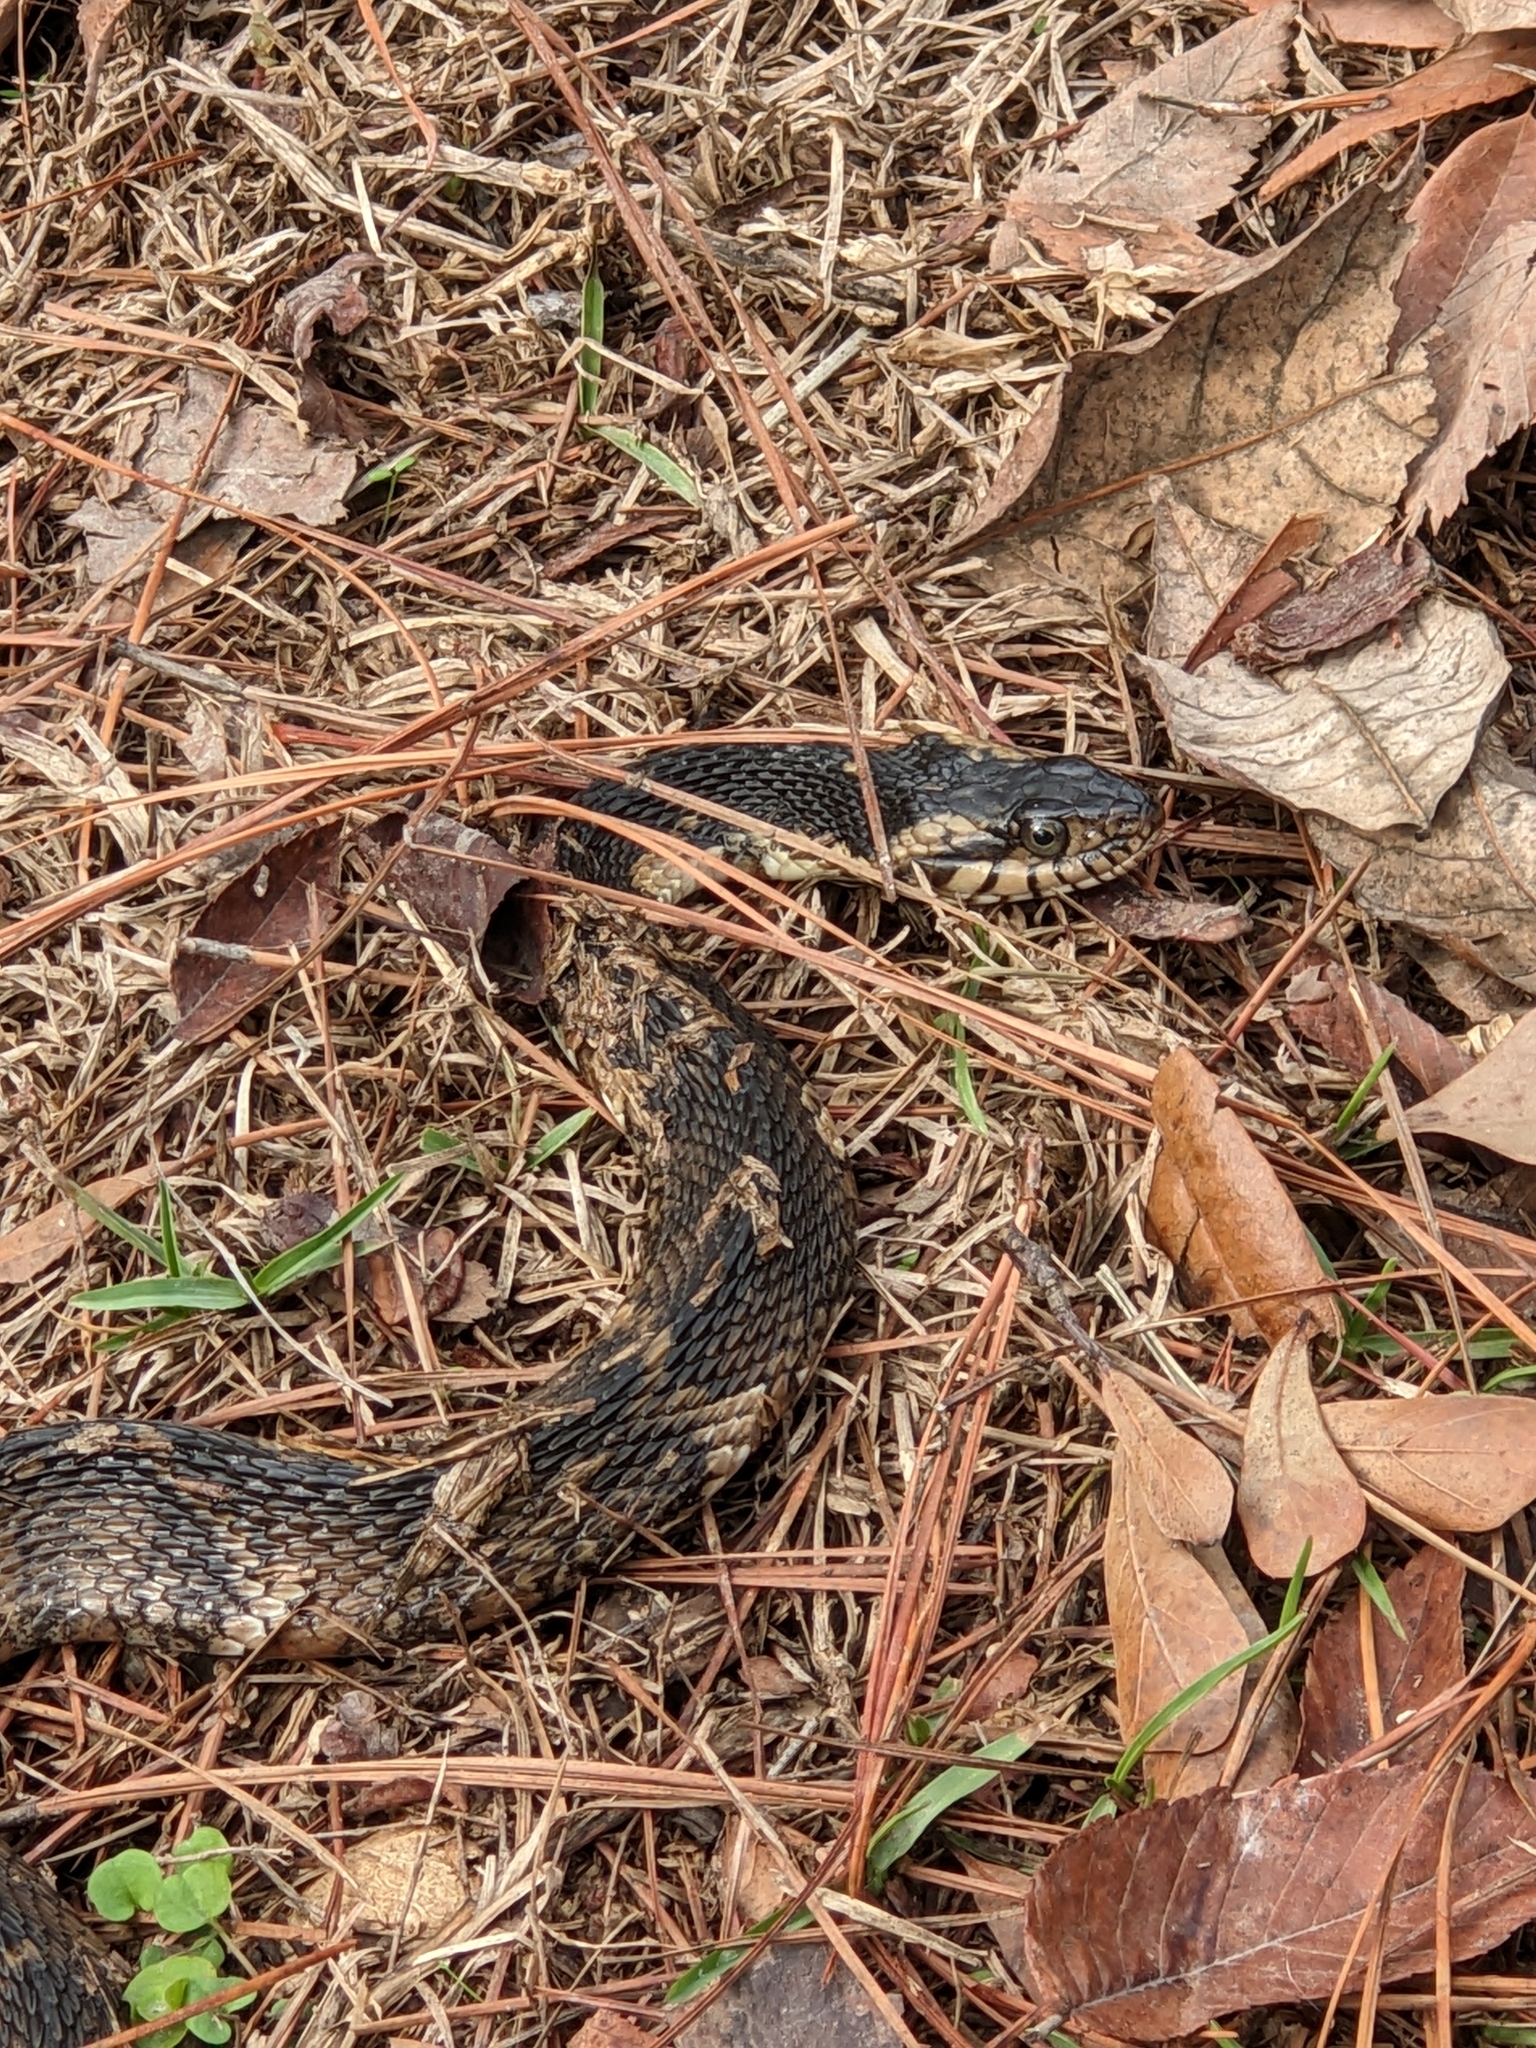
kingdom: Animalia
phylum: Chordata
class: Squamata
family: Colubridae
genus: Nerodia
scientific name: Nerodia fasciata
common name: Southern water snake
